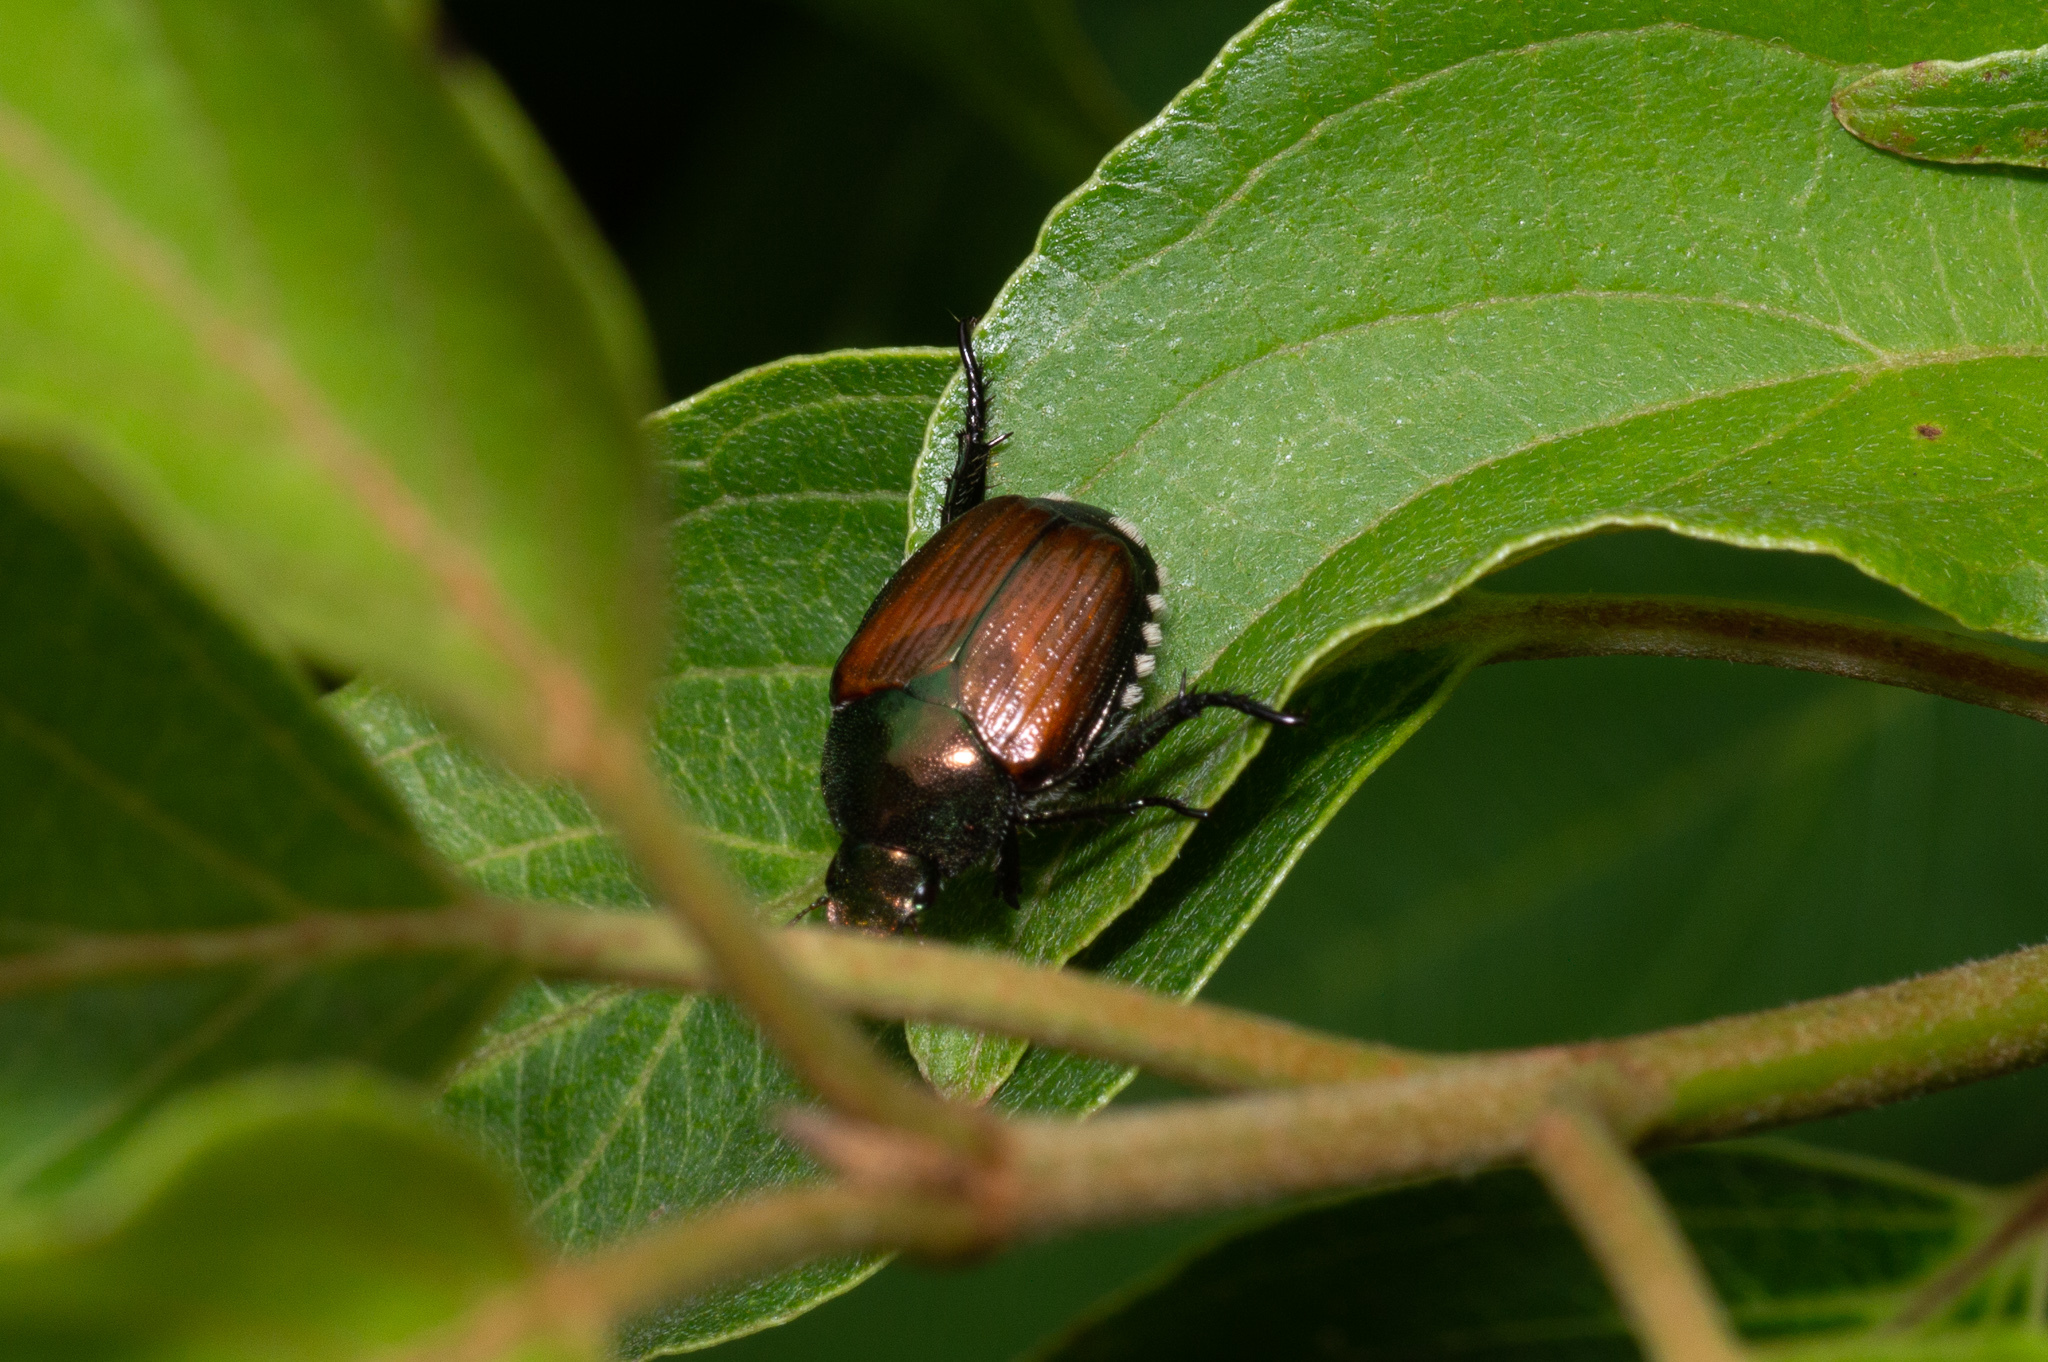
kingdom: Animalia
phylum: Arthropoda
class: Insecta
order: Coleoptera
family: Scarabaeidae
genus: Popillia
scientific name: Popillia japonica
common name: Japanese beetle
